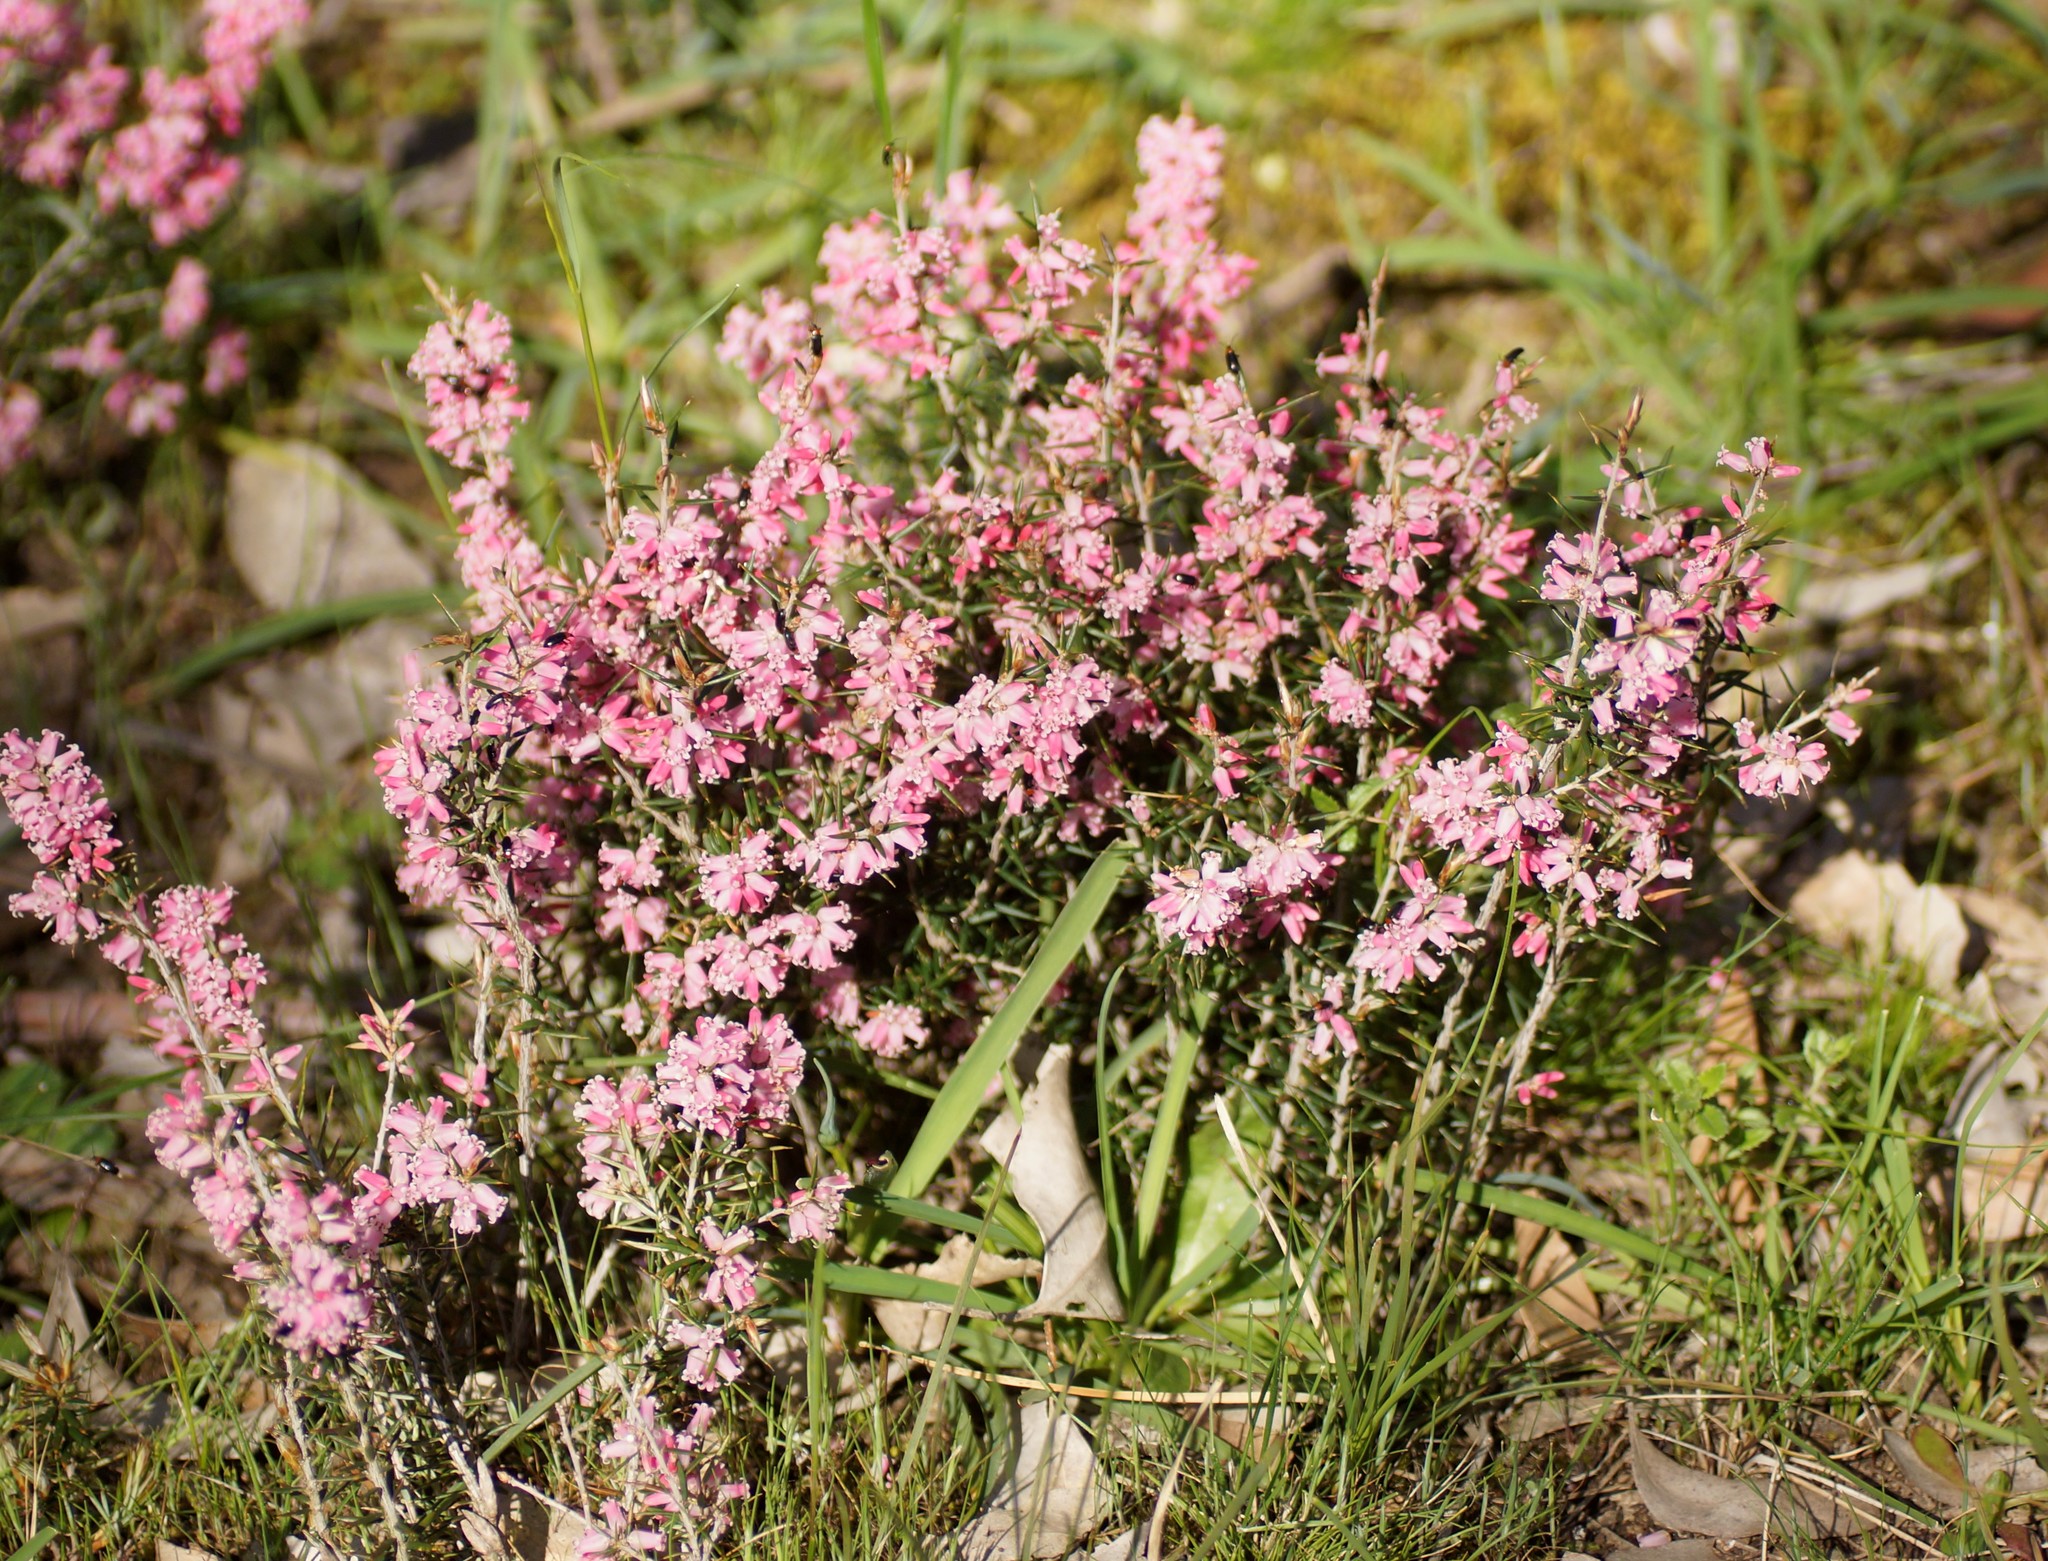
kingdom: Plantae
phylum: Tracheophyta
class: Magnoliopsida
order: Ericales
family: Ericaceae
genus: Lissanthe
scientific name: Lissanthe strigosa
